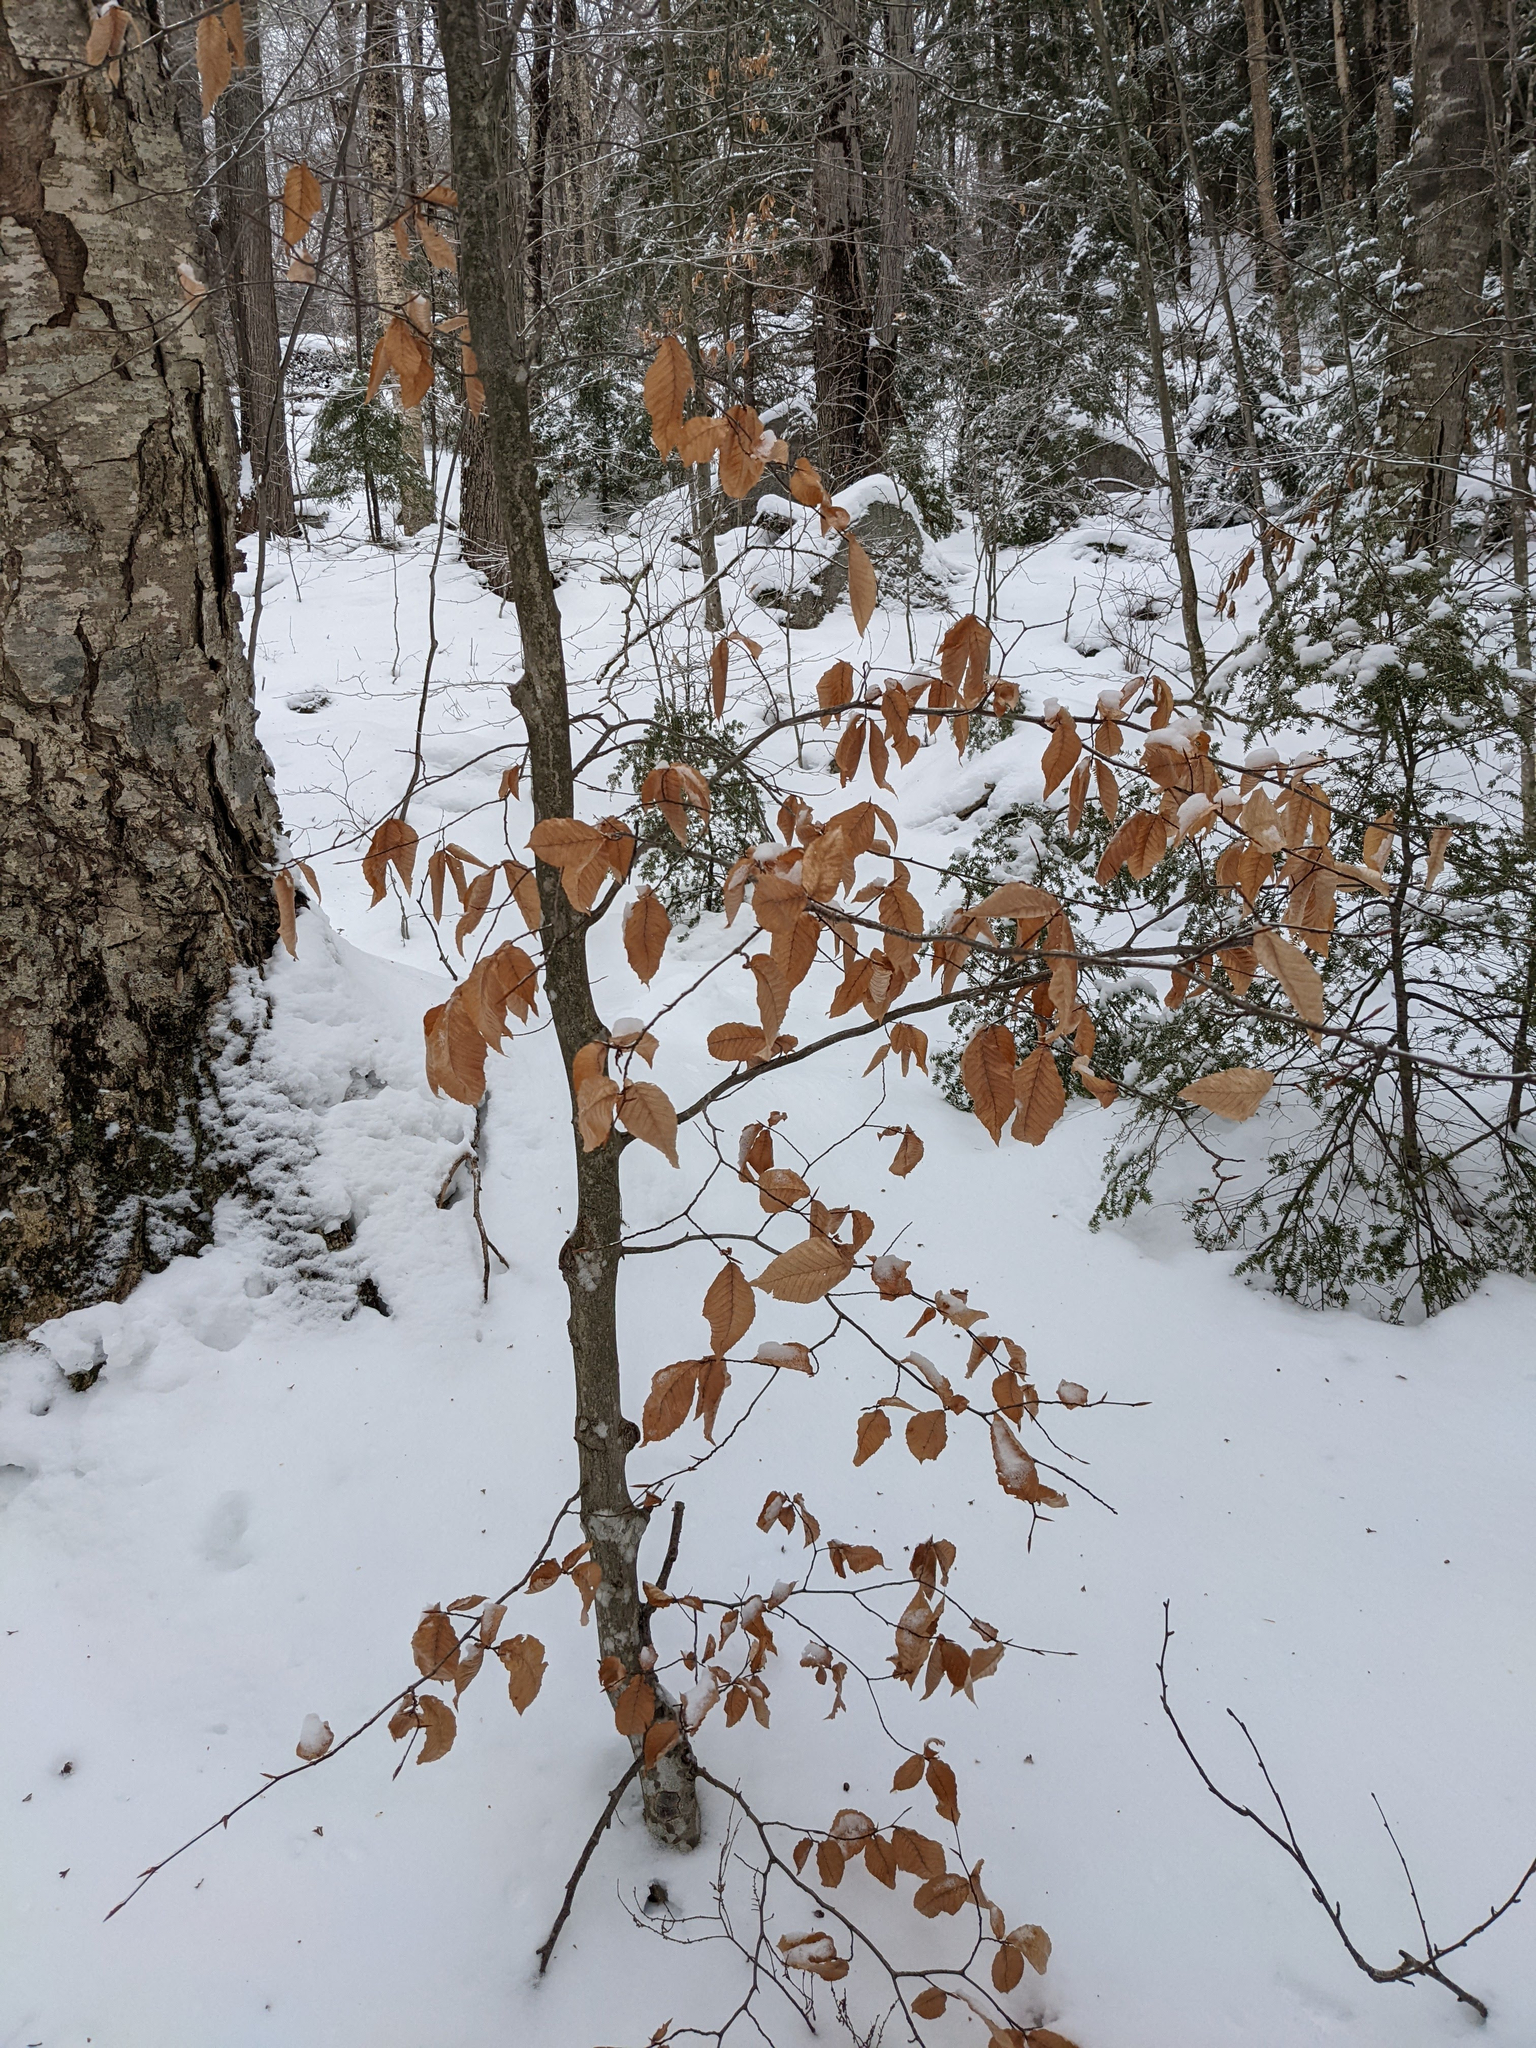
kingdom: Plantae
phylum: Tracheophyta
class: Magnoliopsida
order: Fagales
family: Fagaceae
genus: Fagus
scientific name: Fagus grandifolia
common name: American beech
